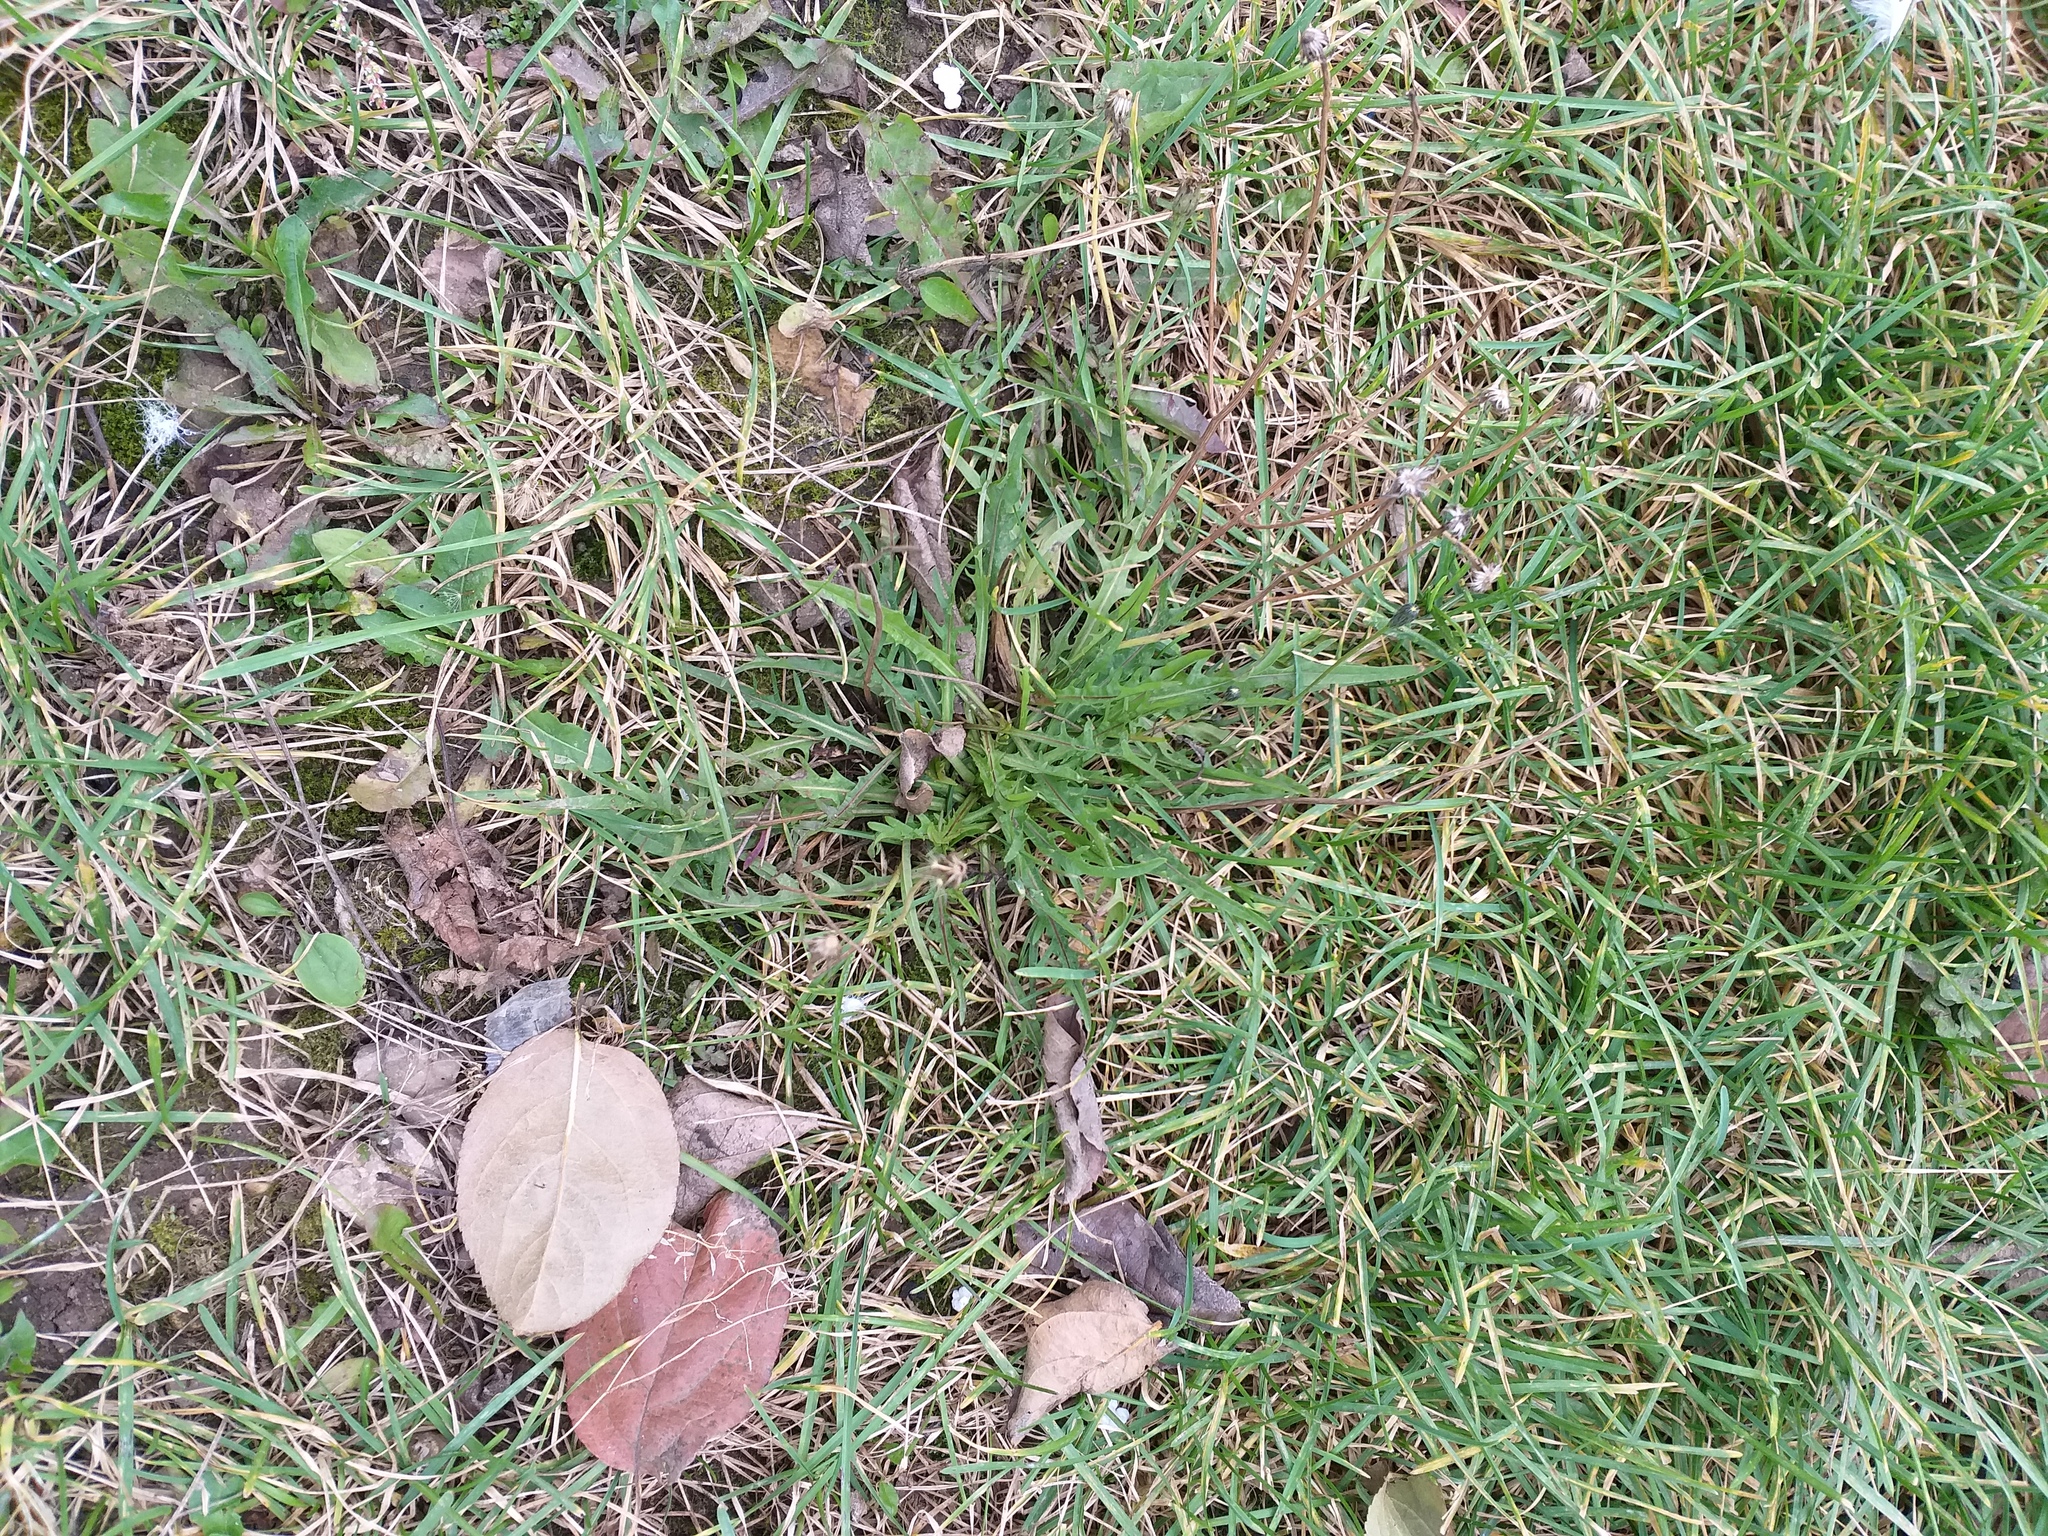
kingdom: Plantae
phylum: Tracheophyta
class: Magnoliopsida
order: Asterales
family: Asteraceae
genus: Scorzoneroides
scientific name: Scorzoneroides autumnalis
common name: Autumn hawkbit
